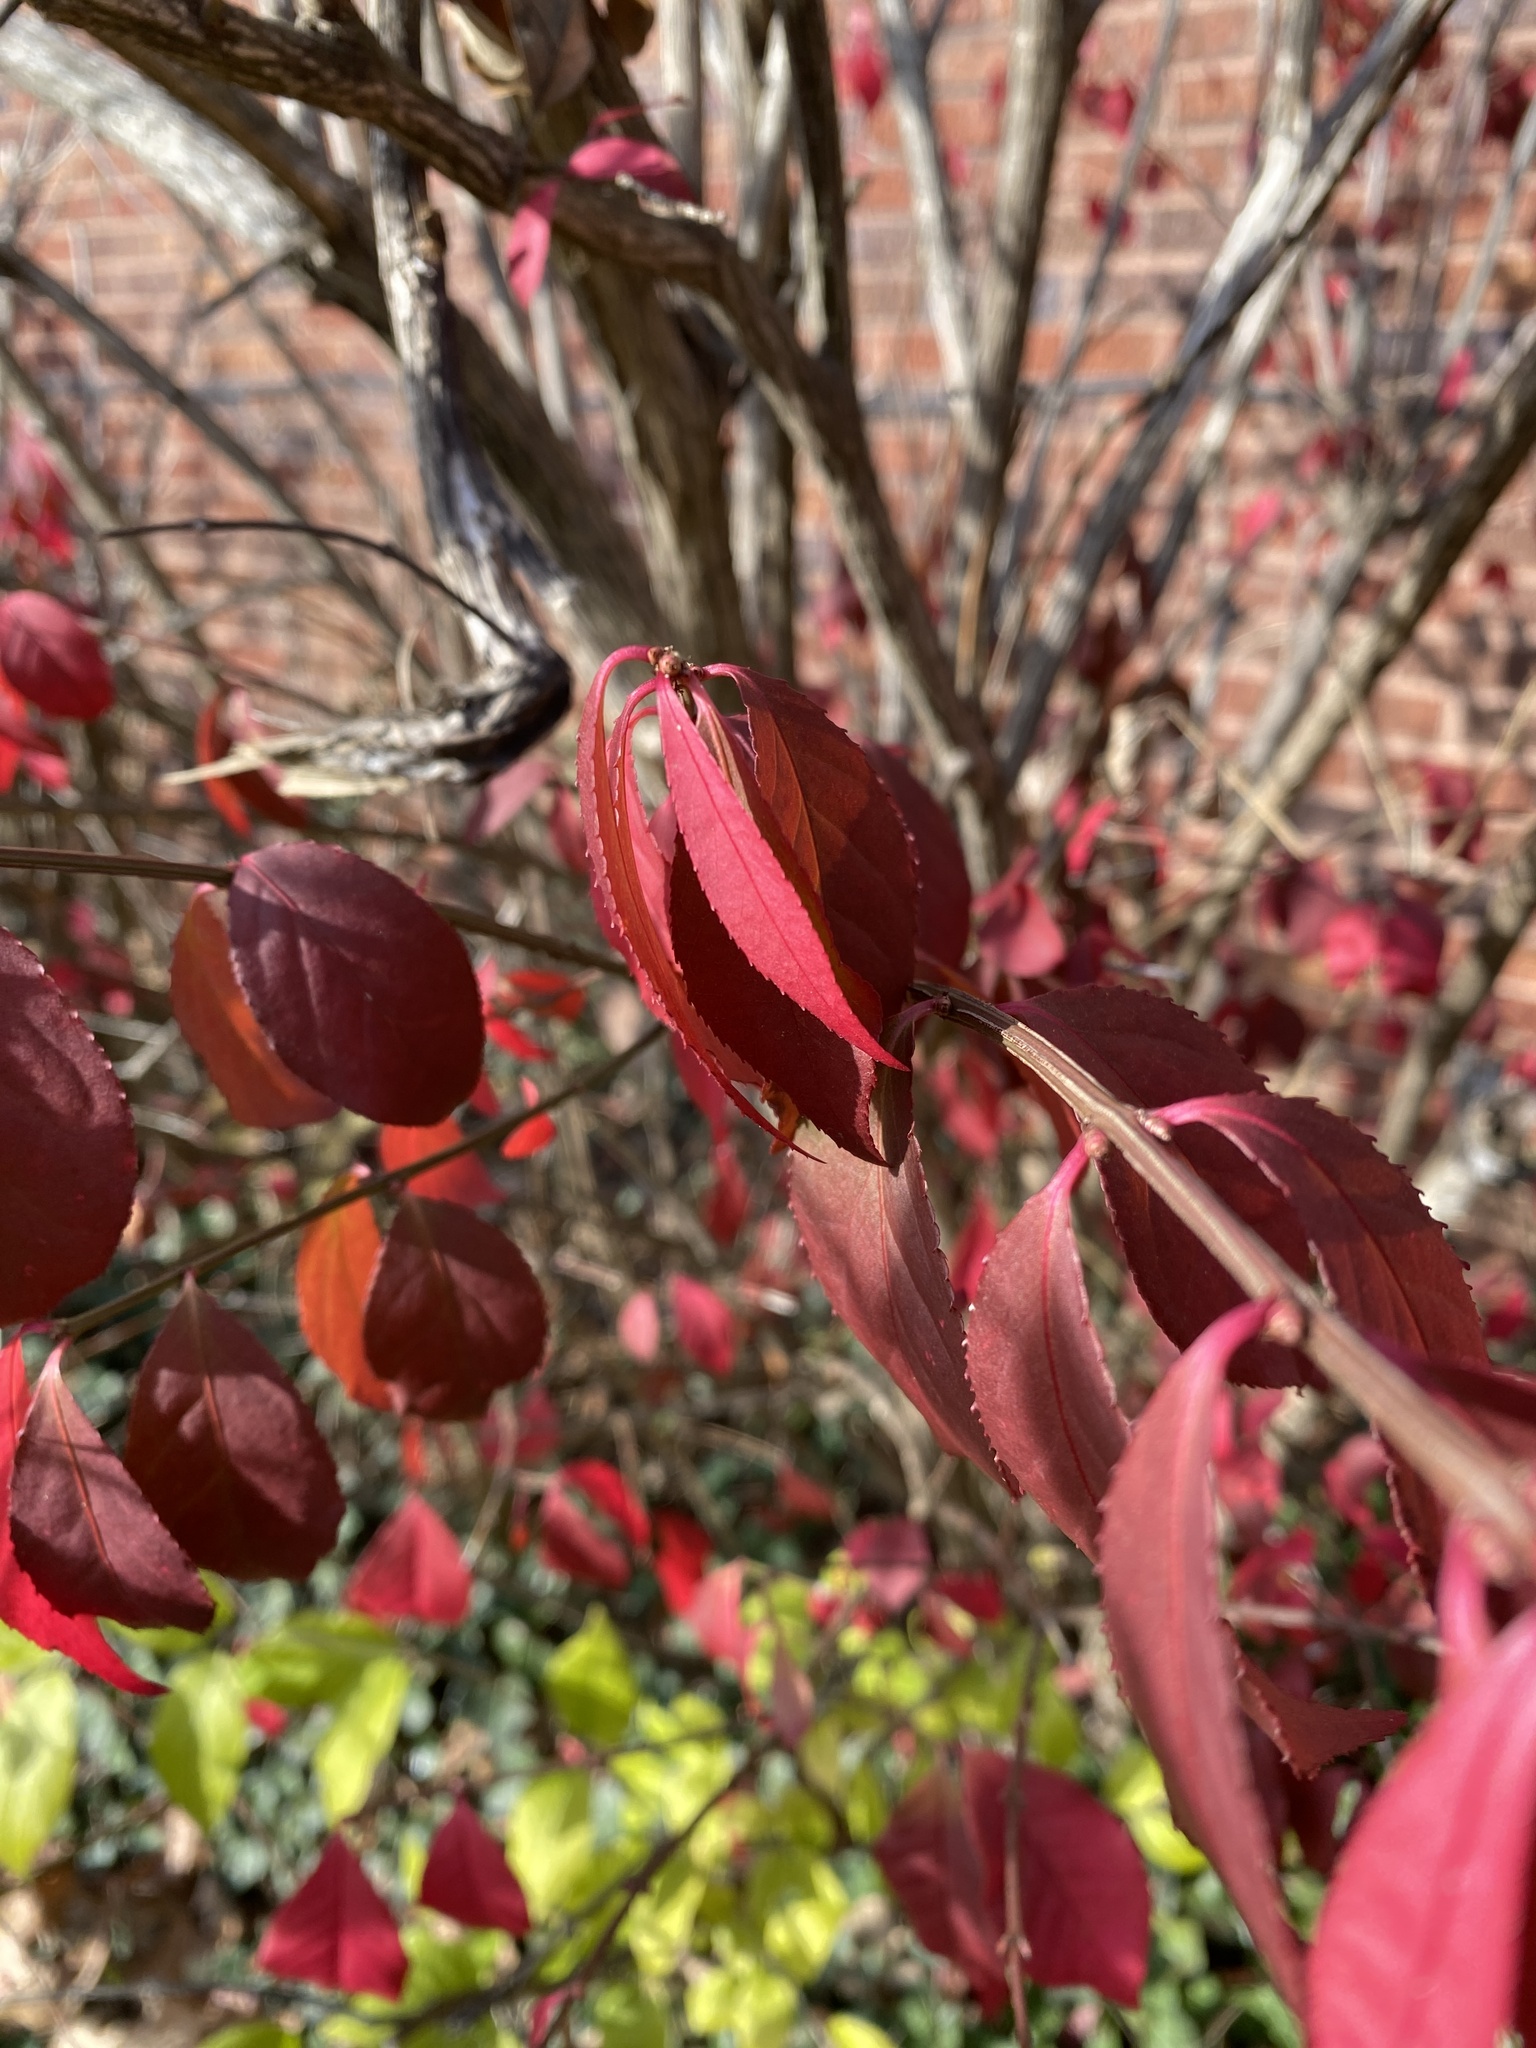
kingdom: Plantae
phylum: Tracheophyta
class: Magnoliopsida
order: Celastrales
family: Celastraceae
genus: Euonymus
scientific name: Euonymus alatus
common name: Winged euonymus
